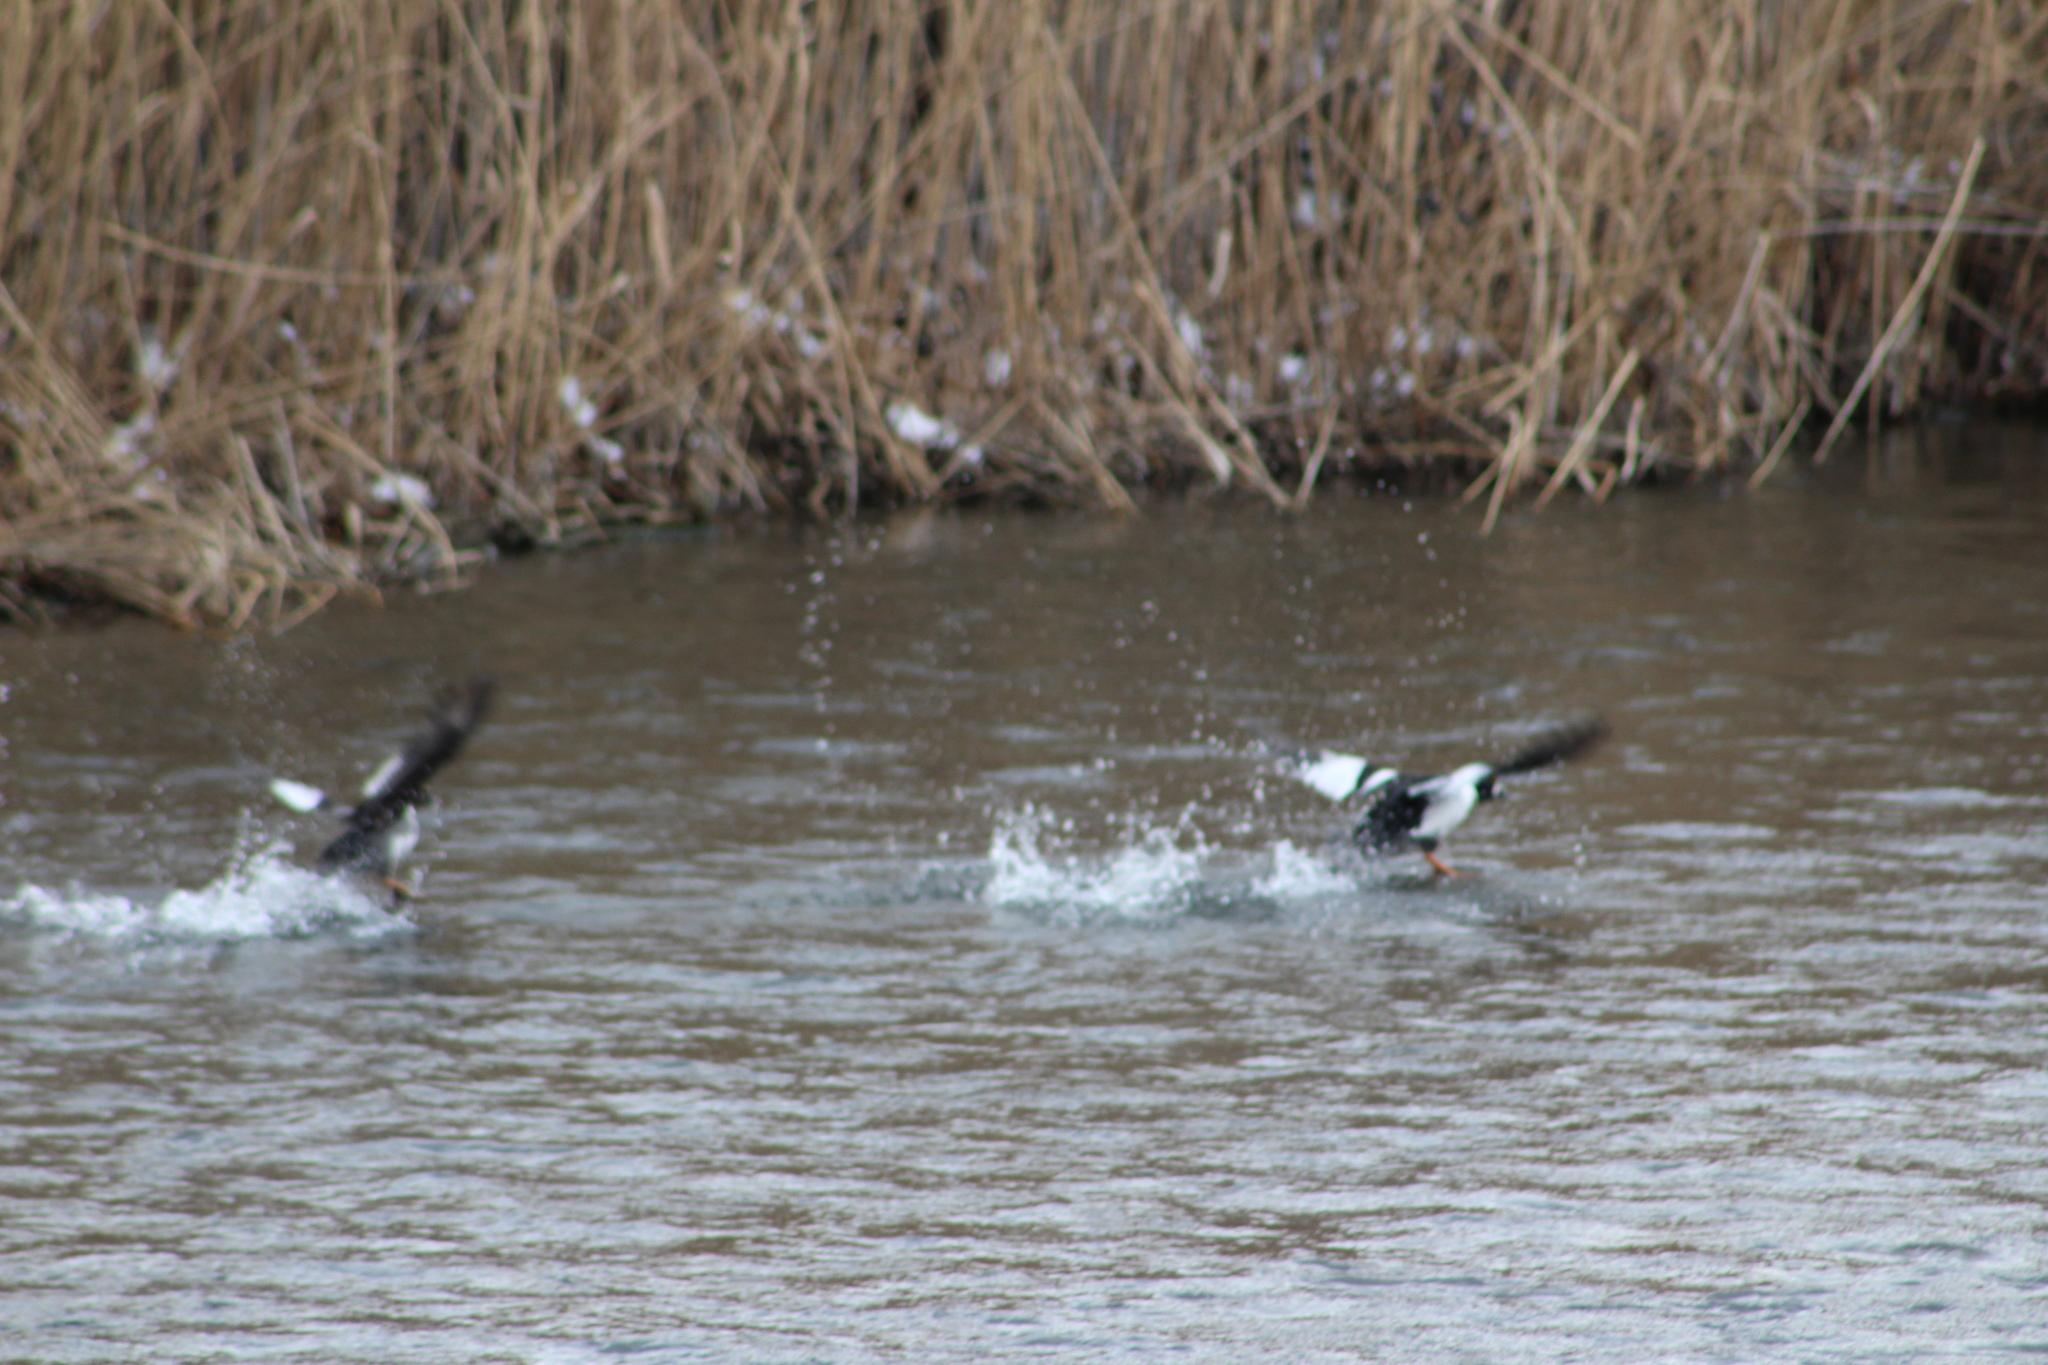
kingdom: Animalia
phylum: Chordata
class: Aves
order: Anseriformes
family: Anatidae
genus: Bucephala
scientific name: Bucephala clangula
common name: Common goldeneye
